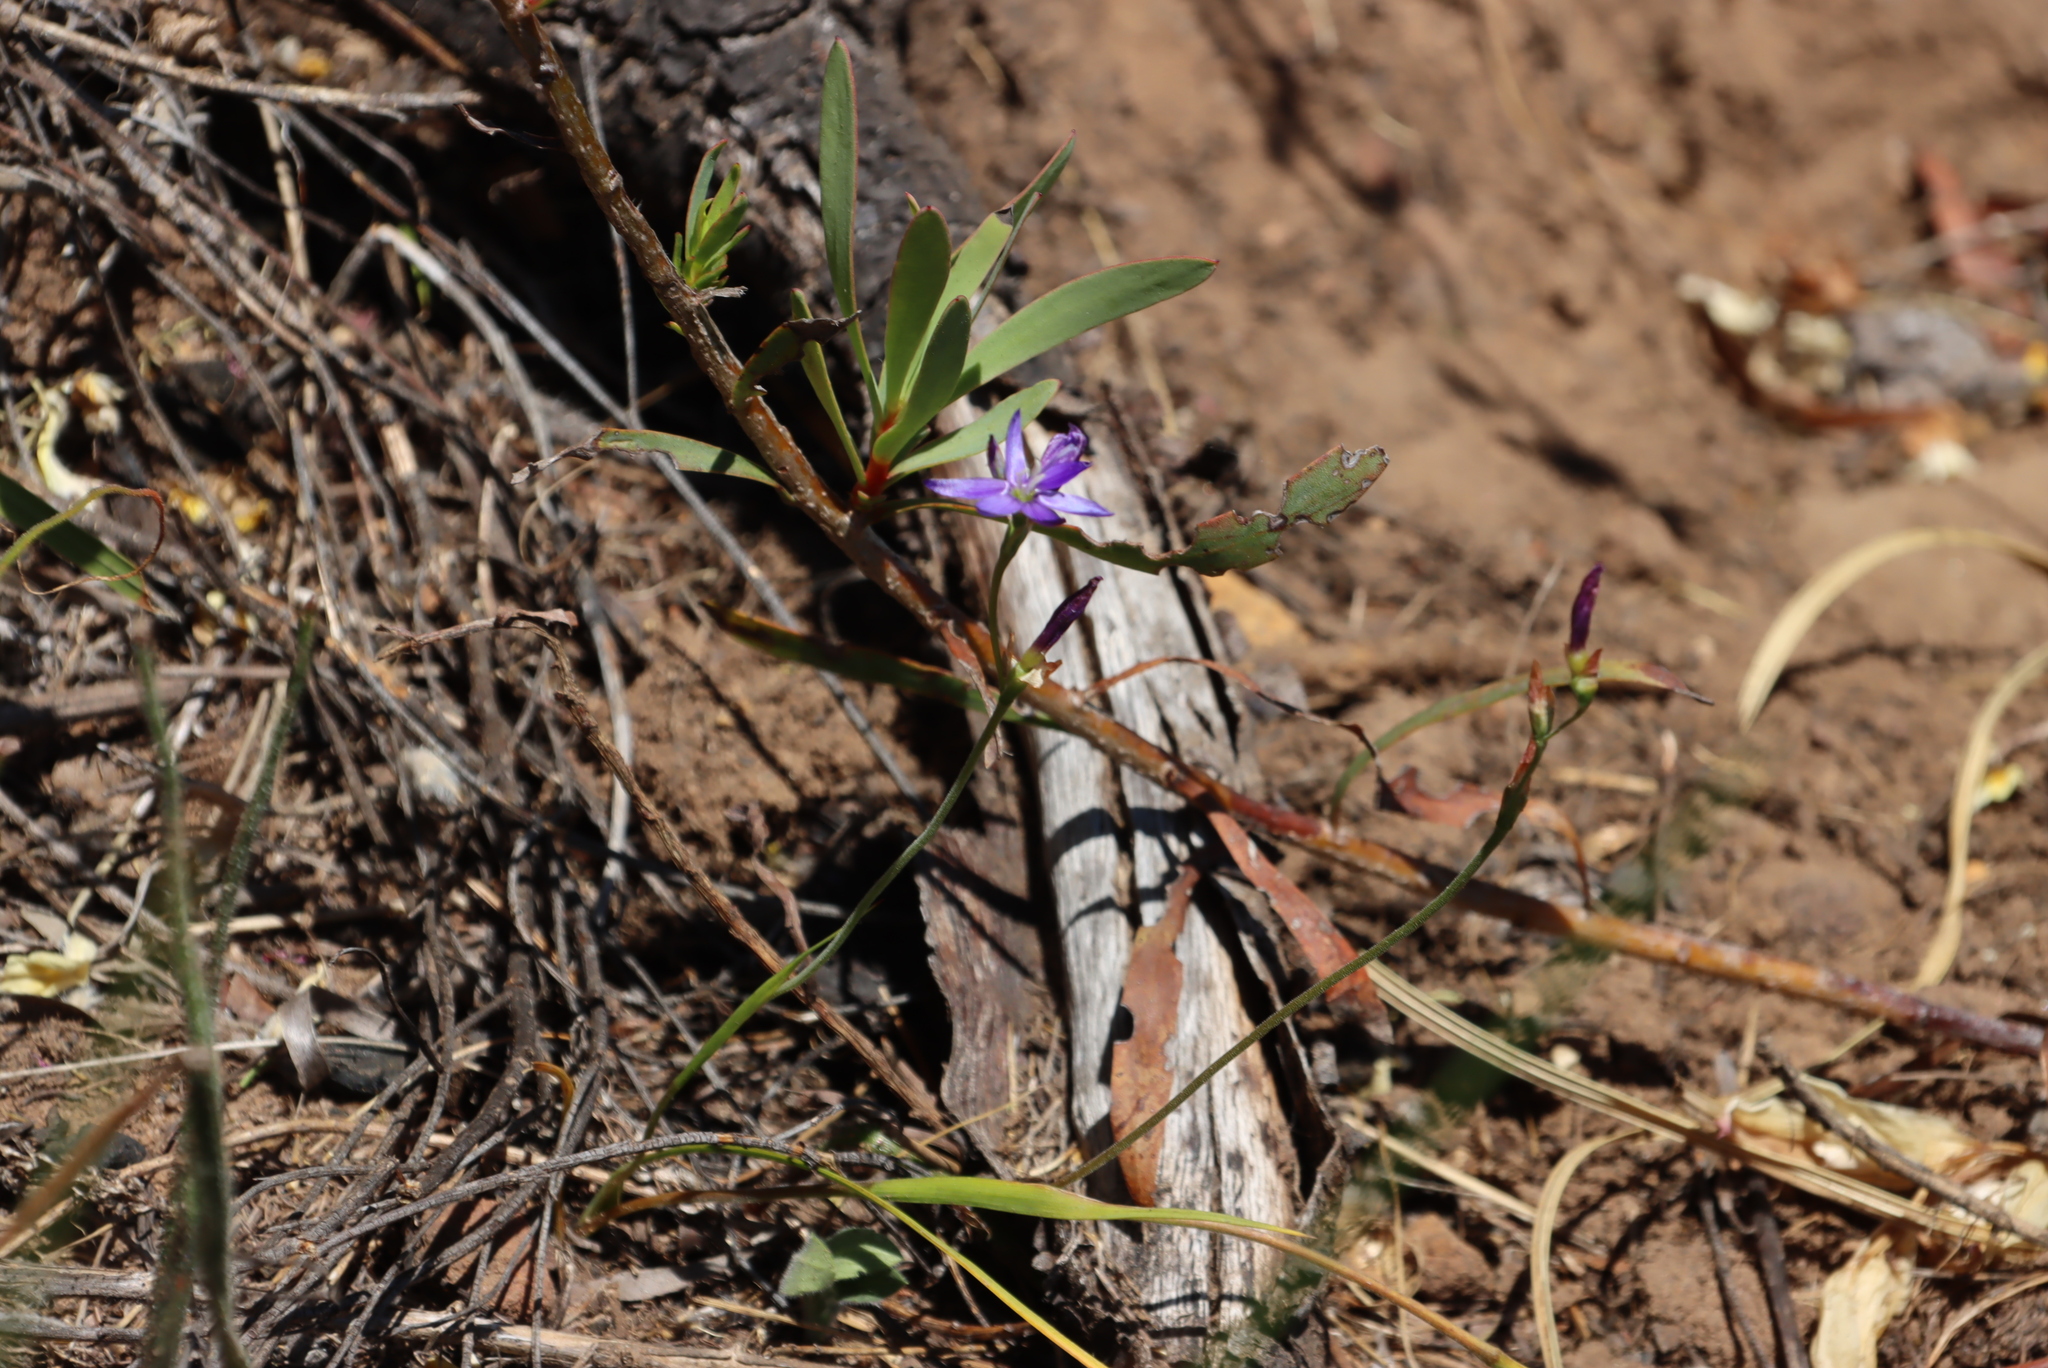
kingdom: Plantae
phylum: Tracheophyta
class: Liliopsida
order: Asparagales
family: Iridaceae
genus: Geissorhiza
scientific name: Geissorhiza aspera
